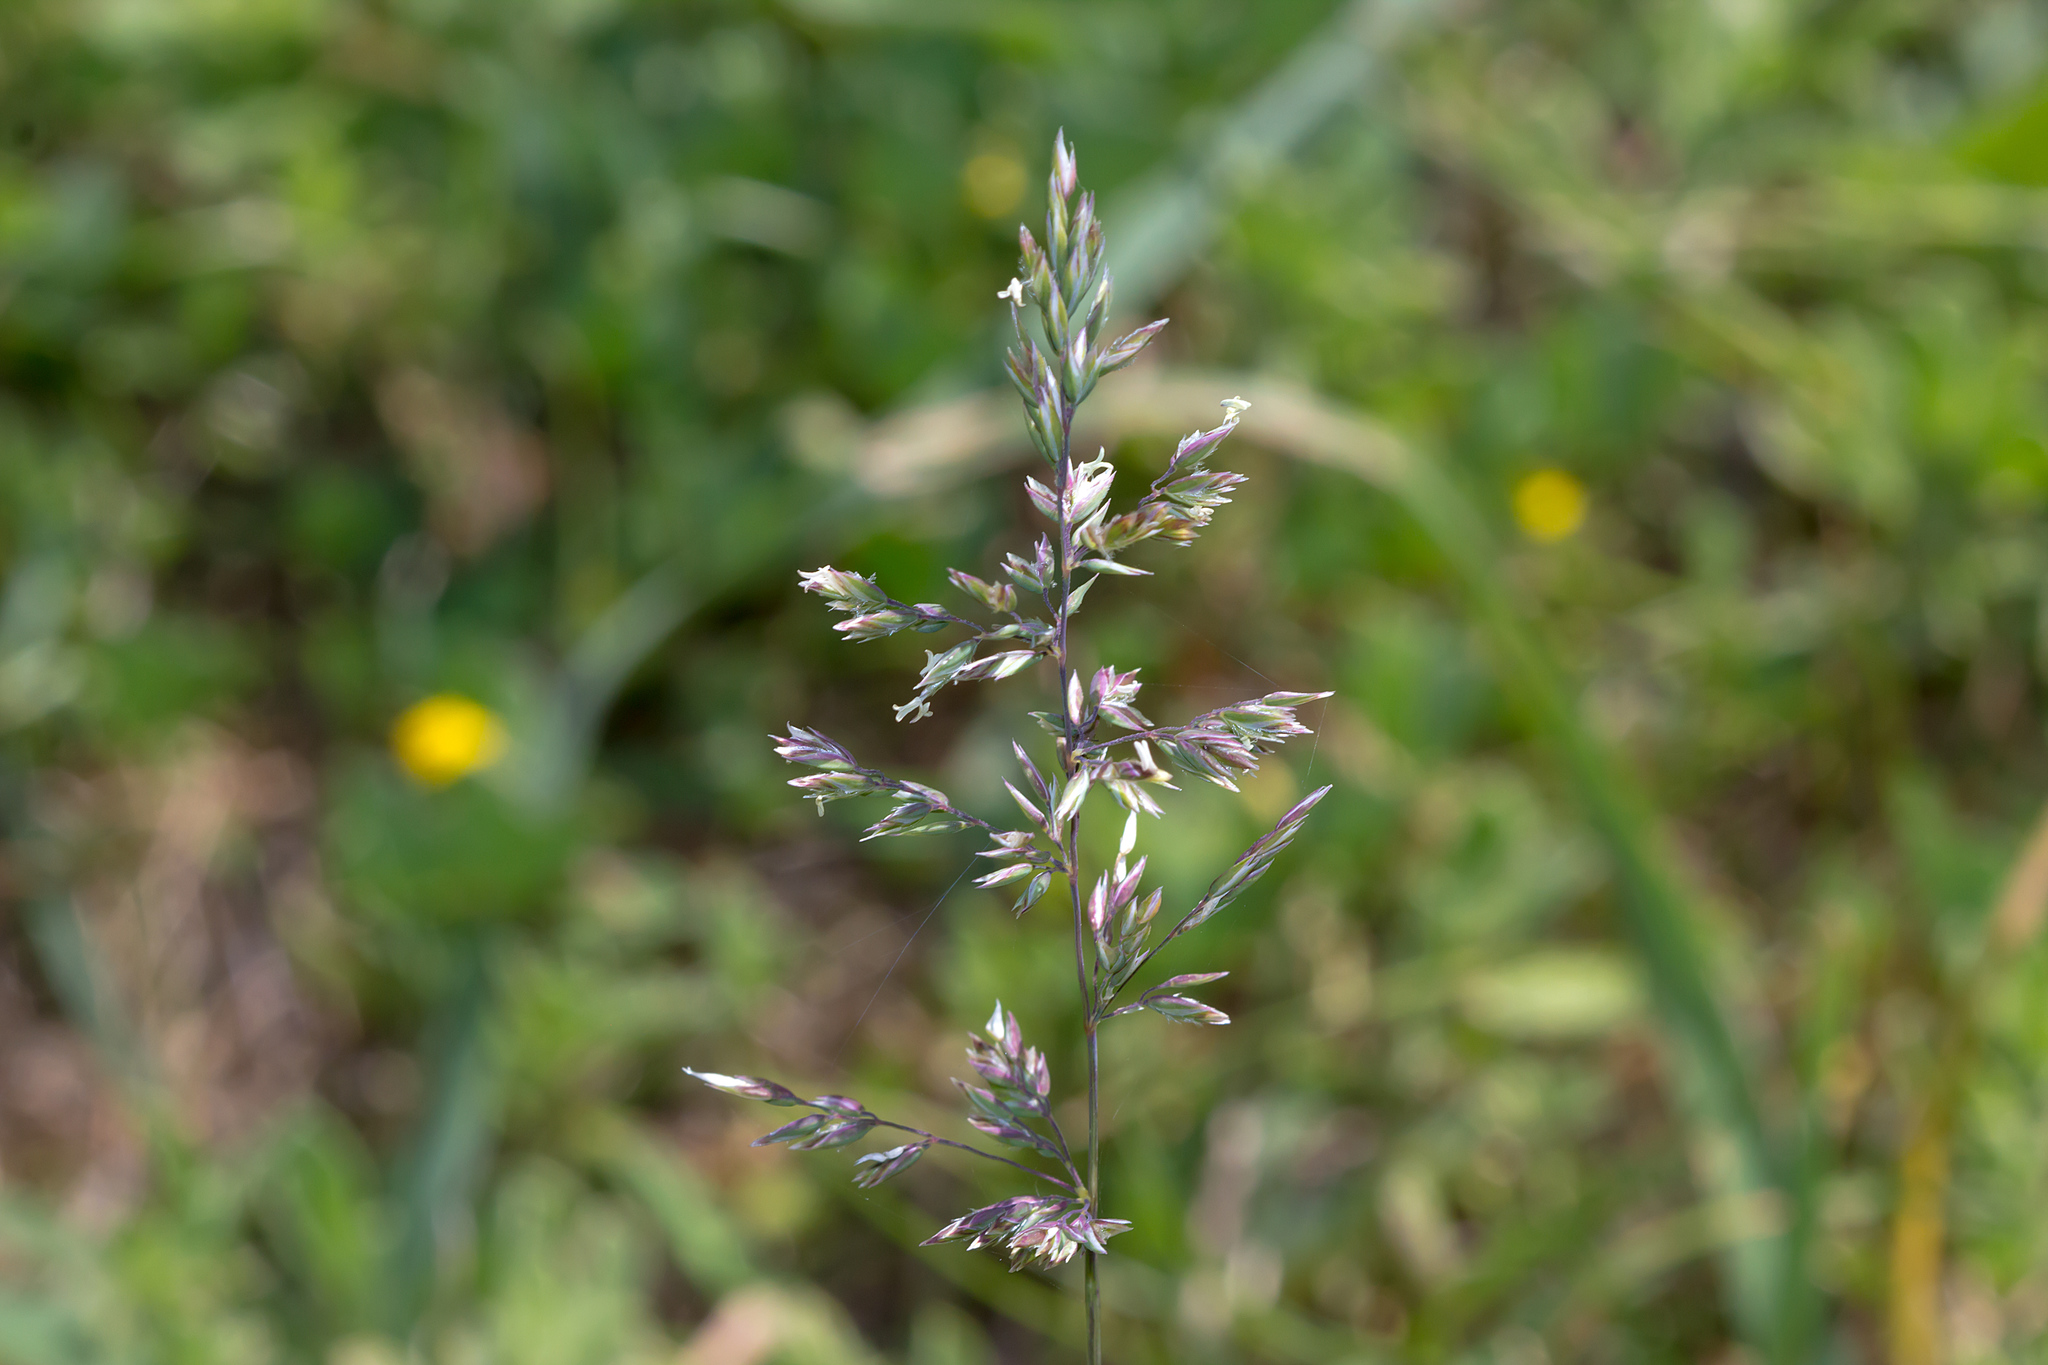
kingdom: Plantae
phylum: Tracheophyta
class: Liliopsida
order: Poales
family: Poaceae
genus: Poa
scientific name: Poa annua
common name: Annual bluegrass
